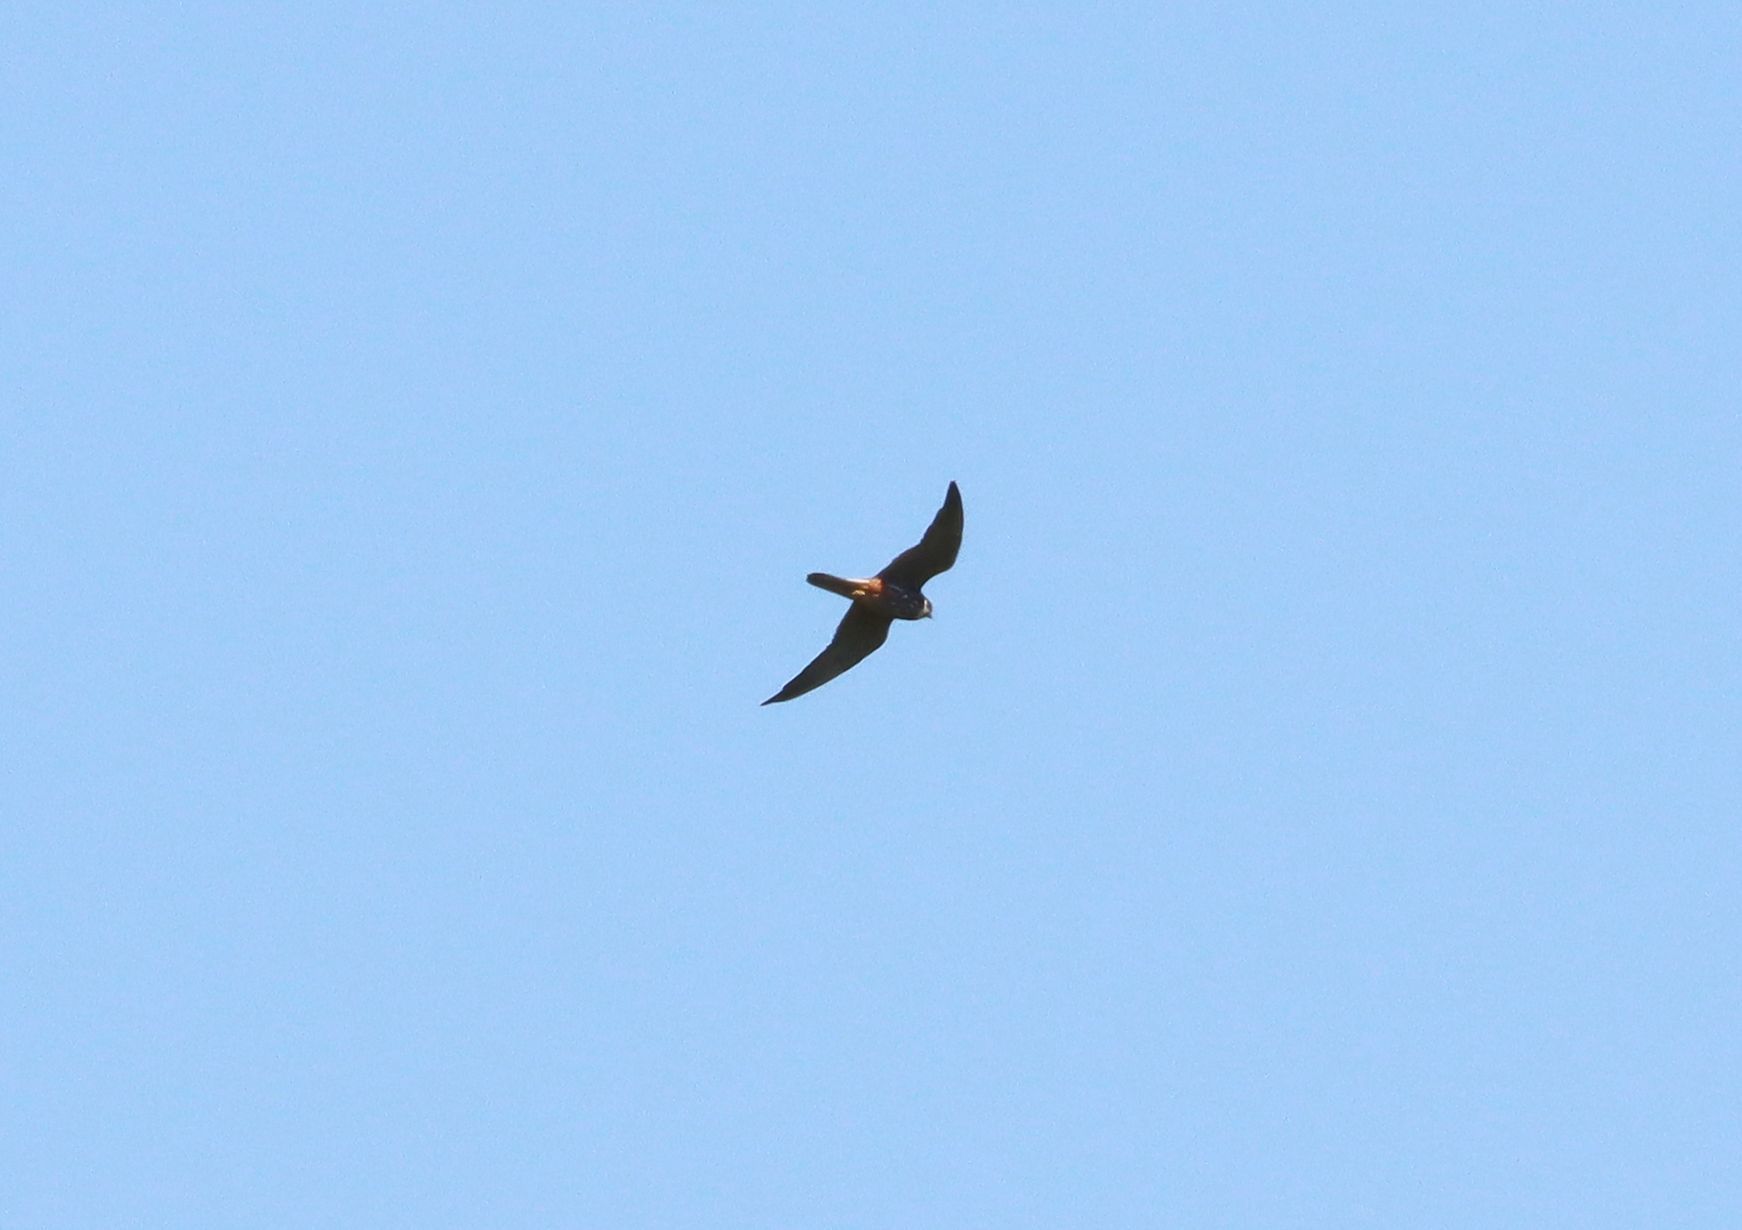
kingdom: Animalia
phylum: Chordata
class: Aves
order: Falconiformes
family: Falconidae
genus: Falco
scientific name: Falco subbuteo
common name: Eurasian hobby
